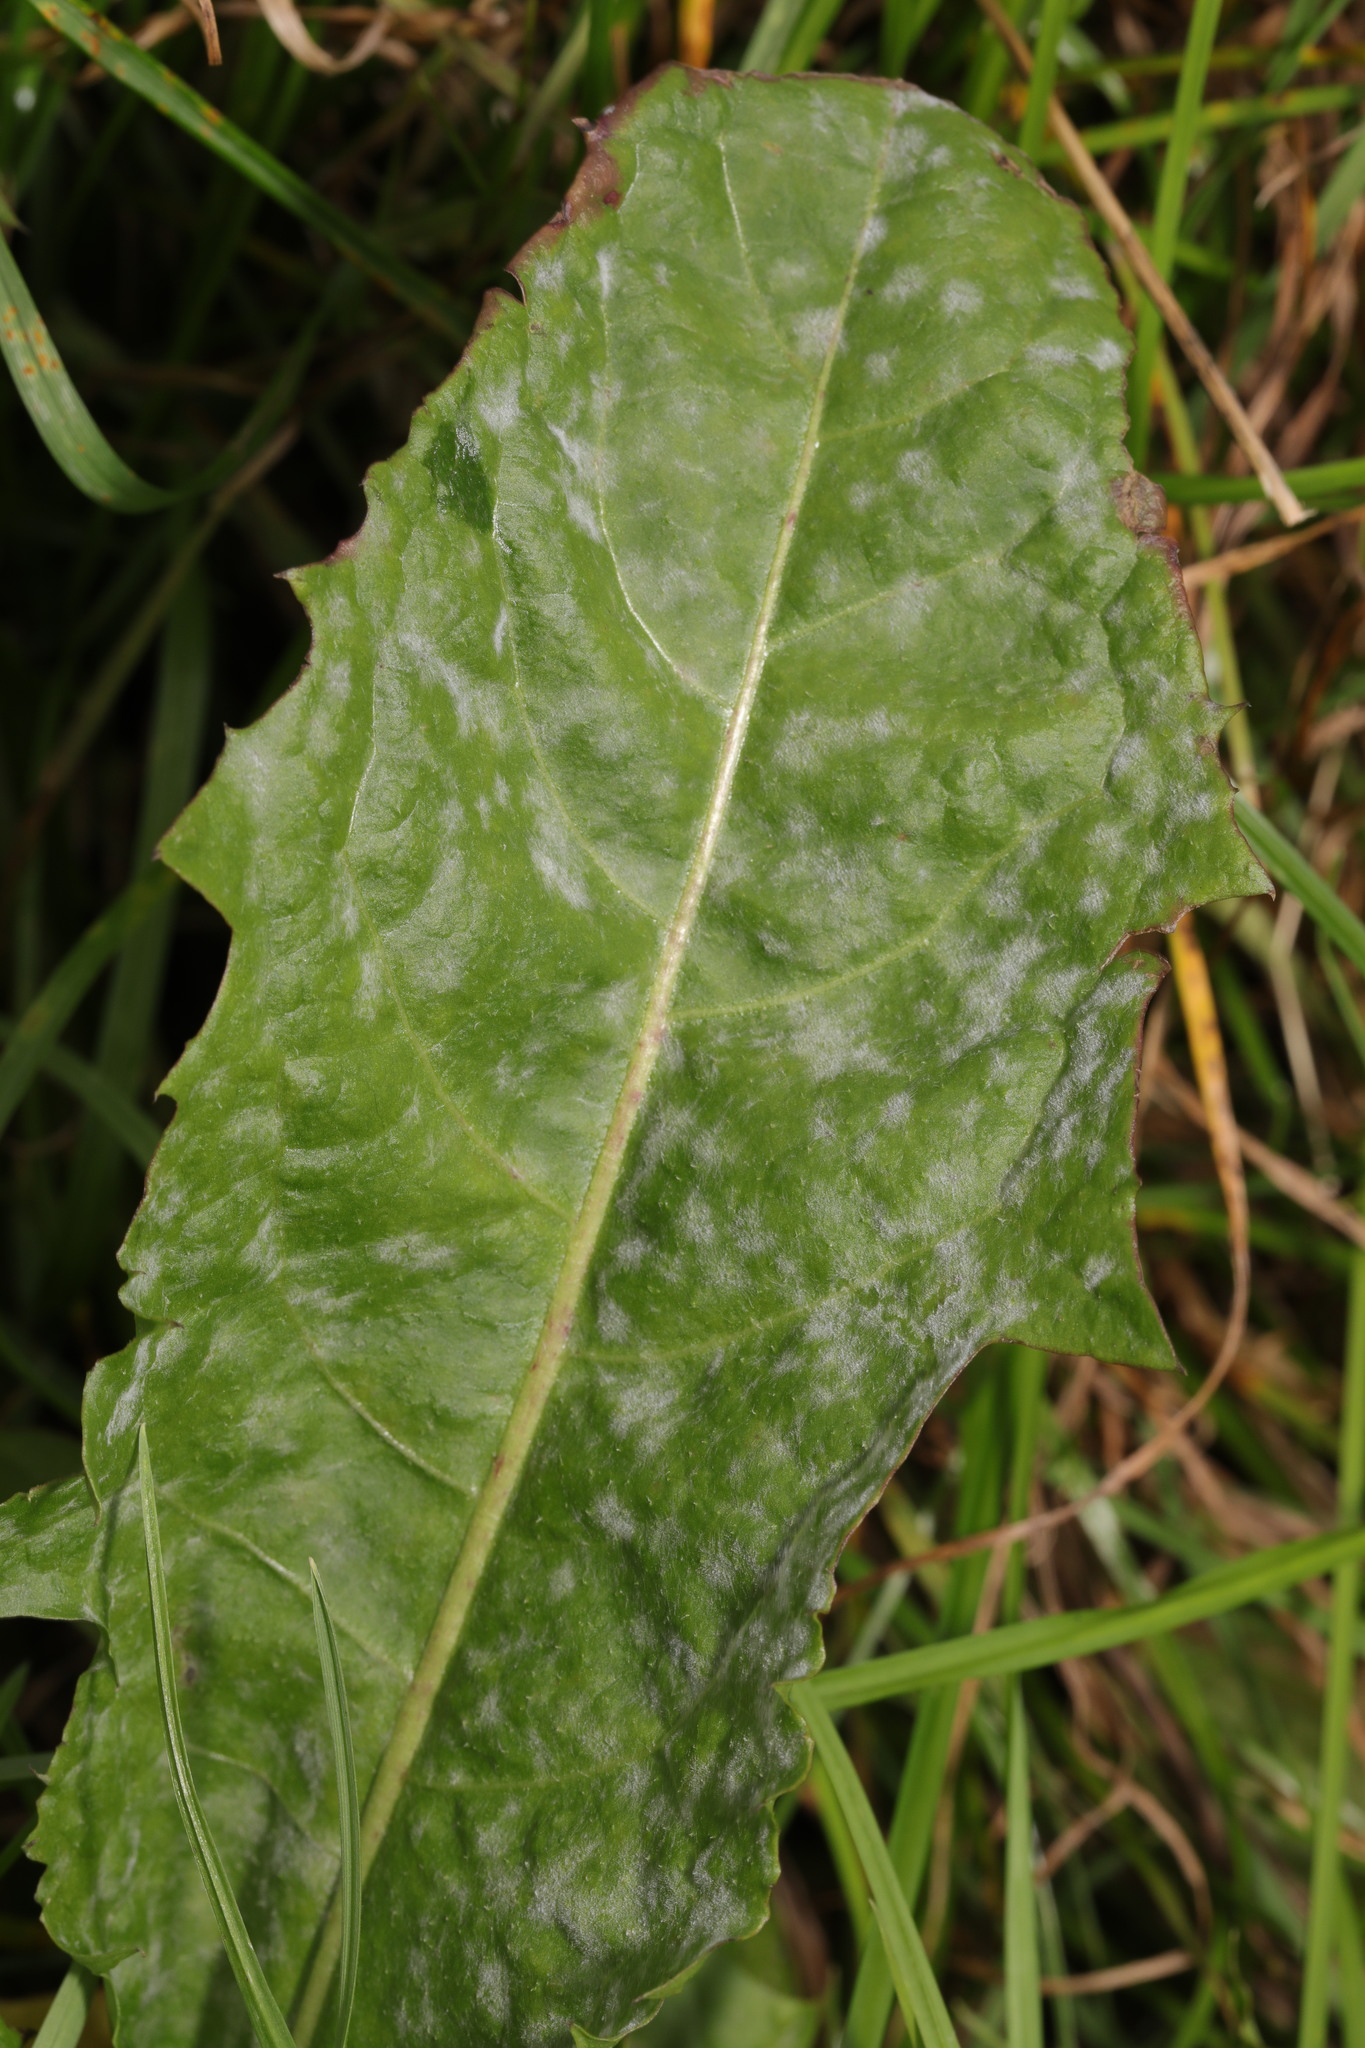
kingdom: Fungi
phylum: Ascomycota
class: Leotiomycetes
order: Helotiales
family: Erysiphaceae
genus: Podosphaera
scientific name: Podosphaera erigerontis-canadensis
